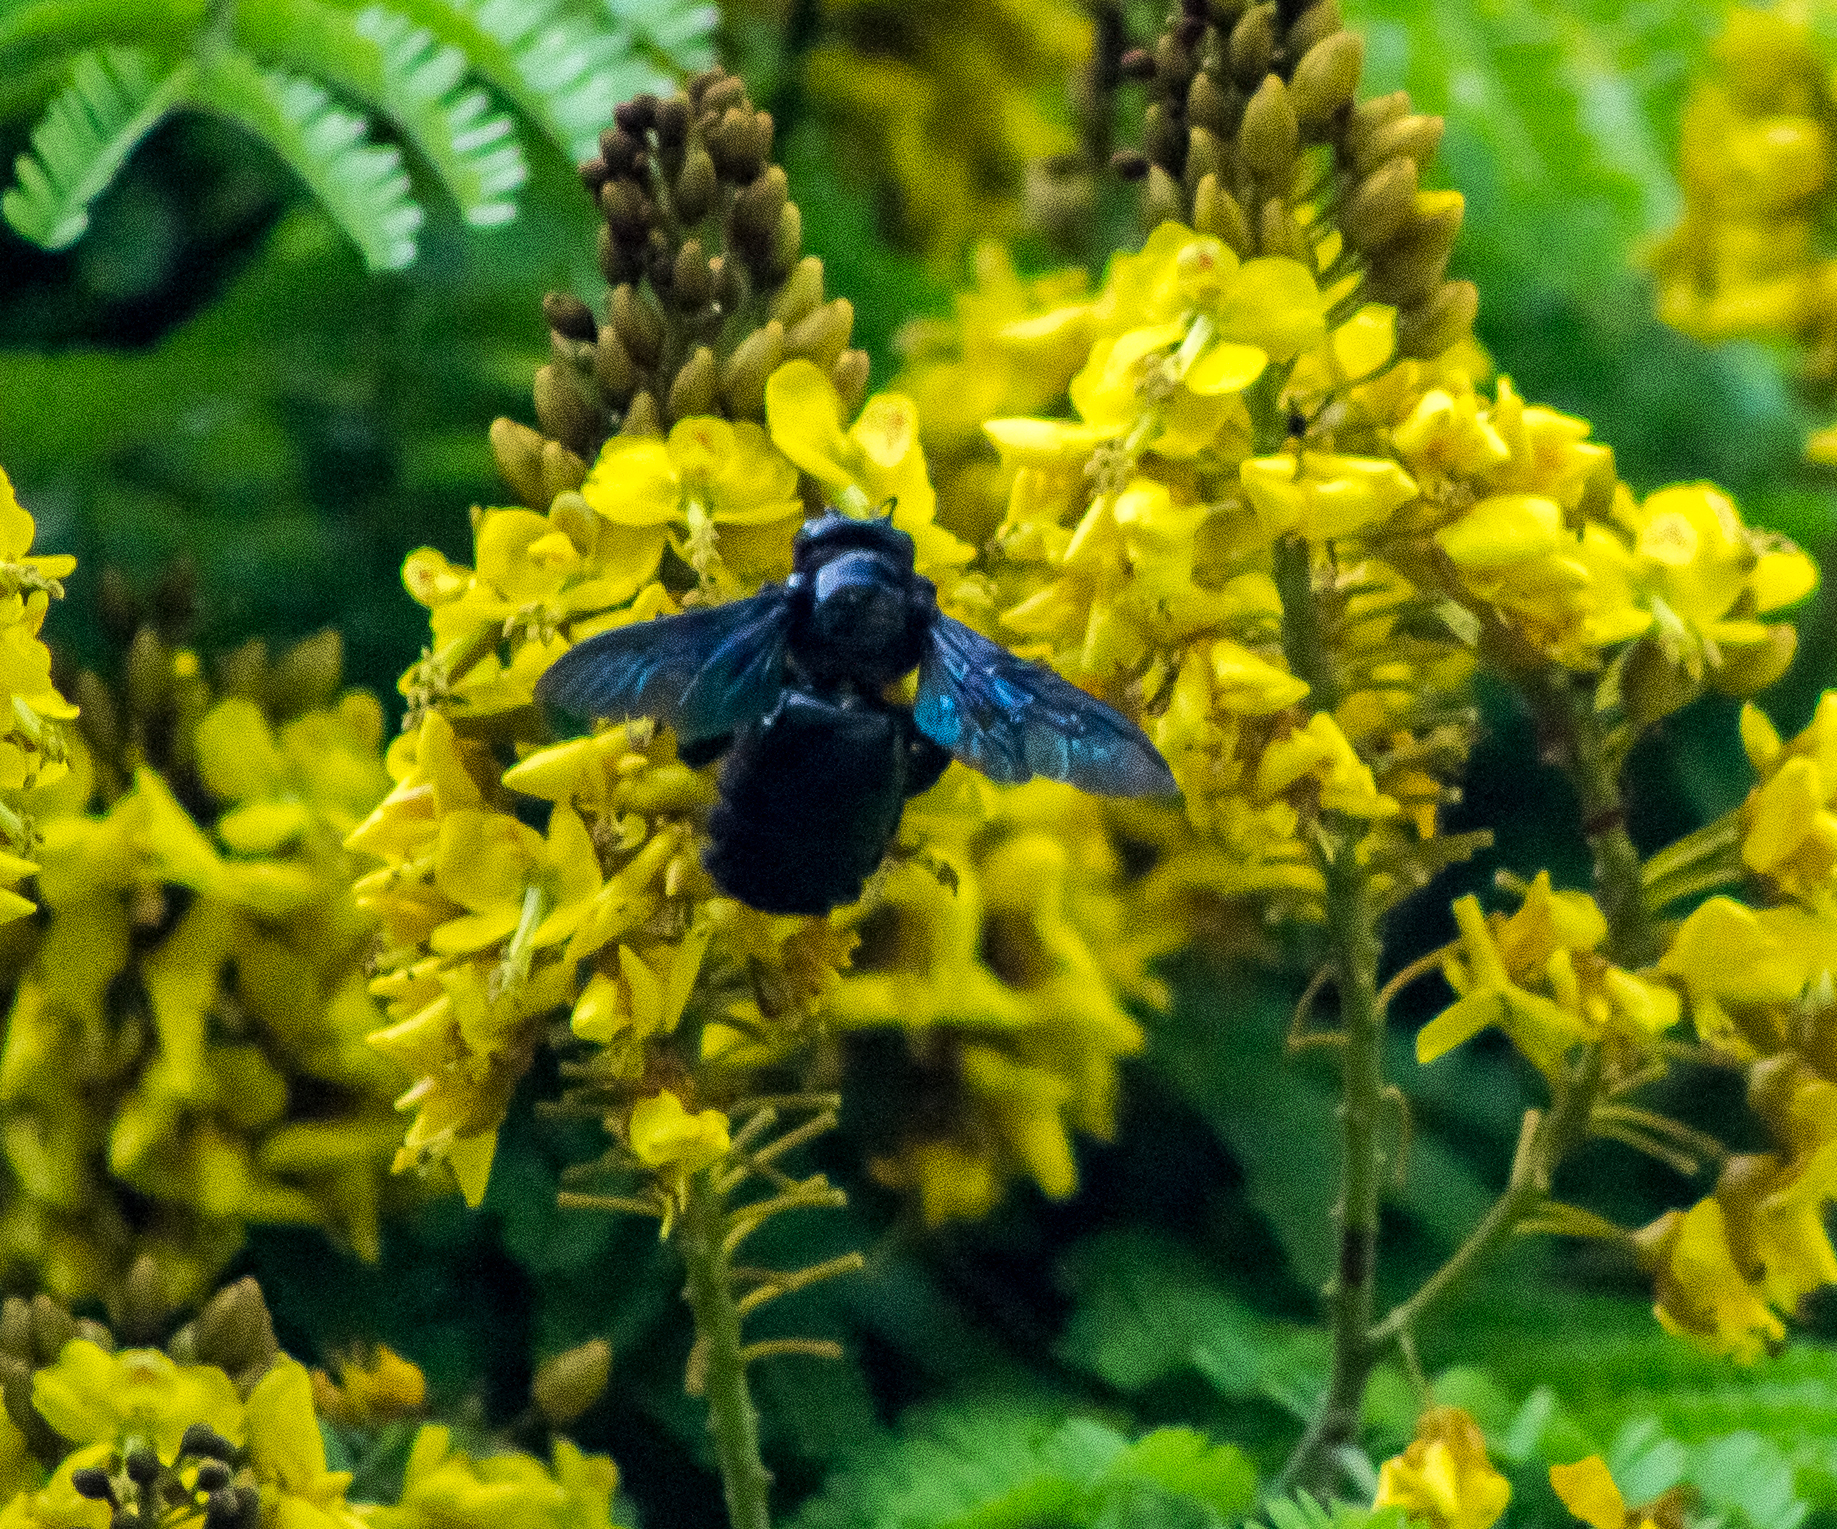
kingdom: Animalia
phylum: Arthropoda
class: Insecta
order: Hymenoptera
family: Apidae
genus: Xylocopa
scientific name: Xylocopa fimbriata
